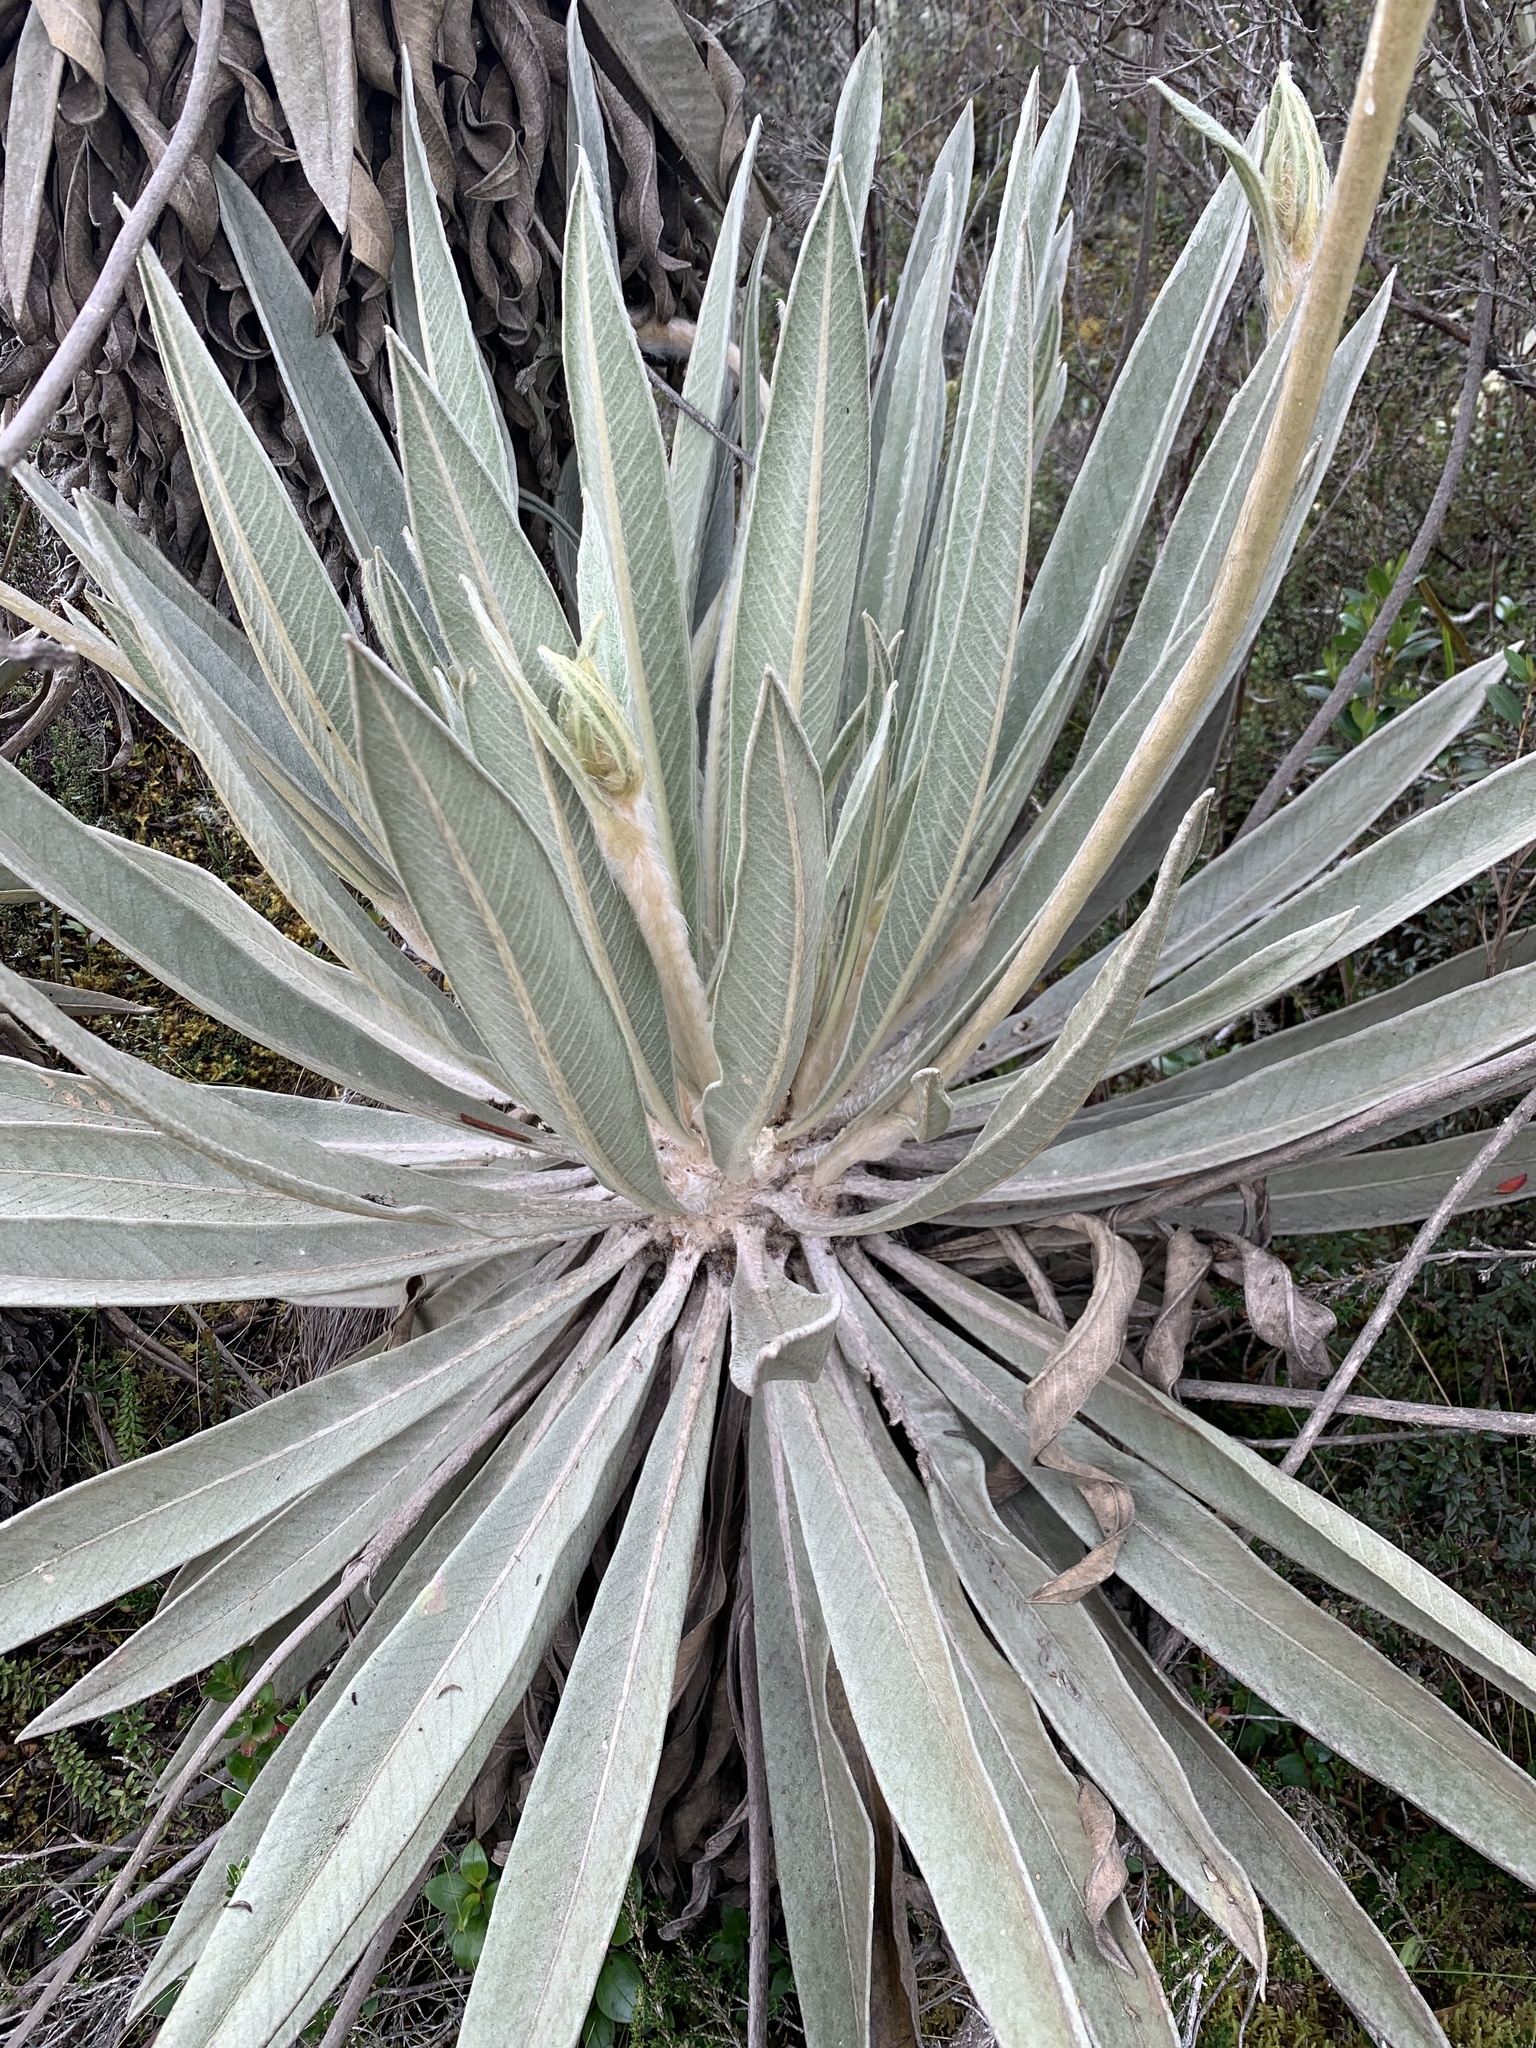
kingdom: Plantae
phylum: Tracheophyta
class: Magnoliopsida
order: Asterales
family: Asteraceae
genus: Espeletia
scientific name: Espeletia grandiflora
